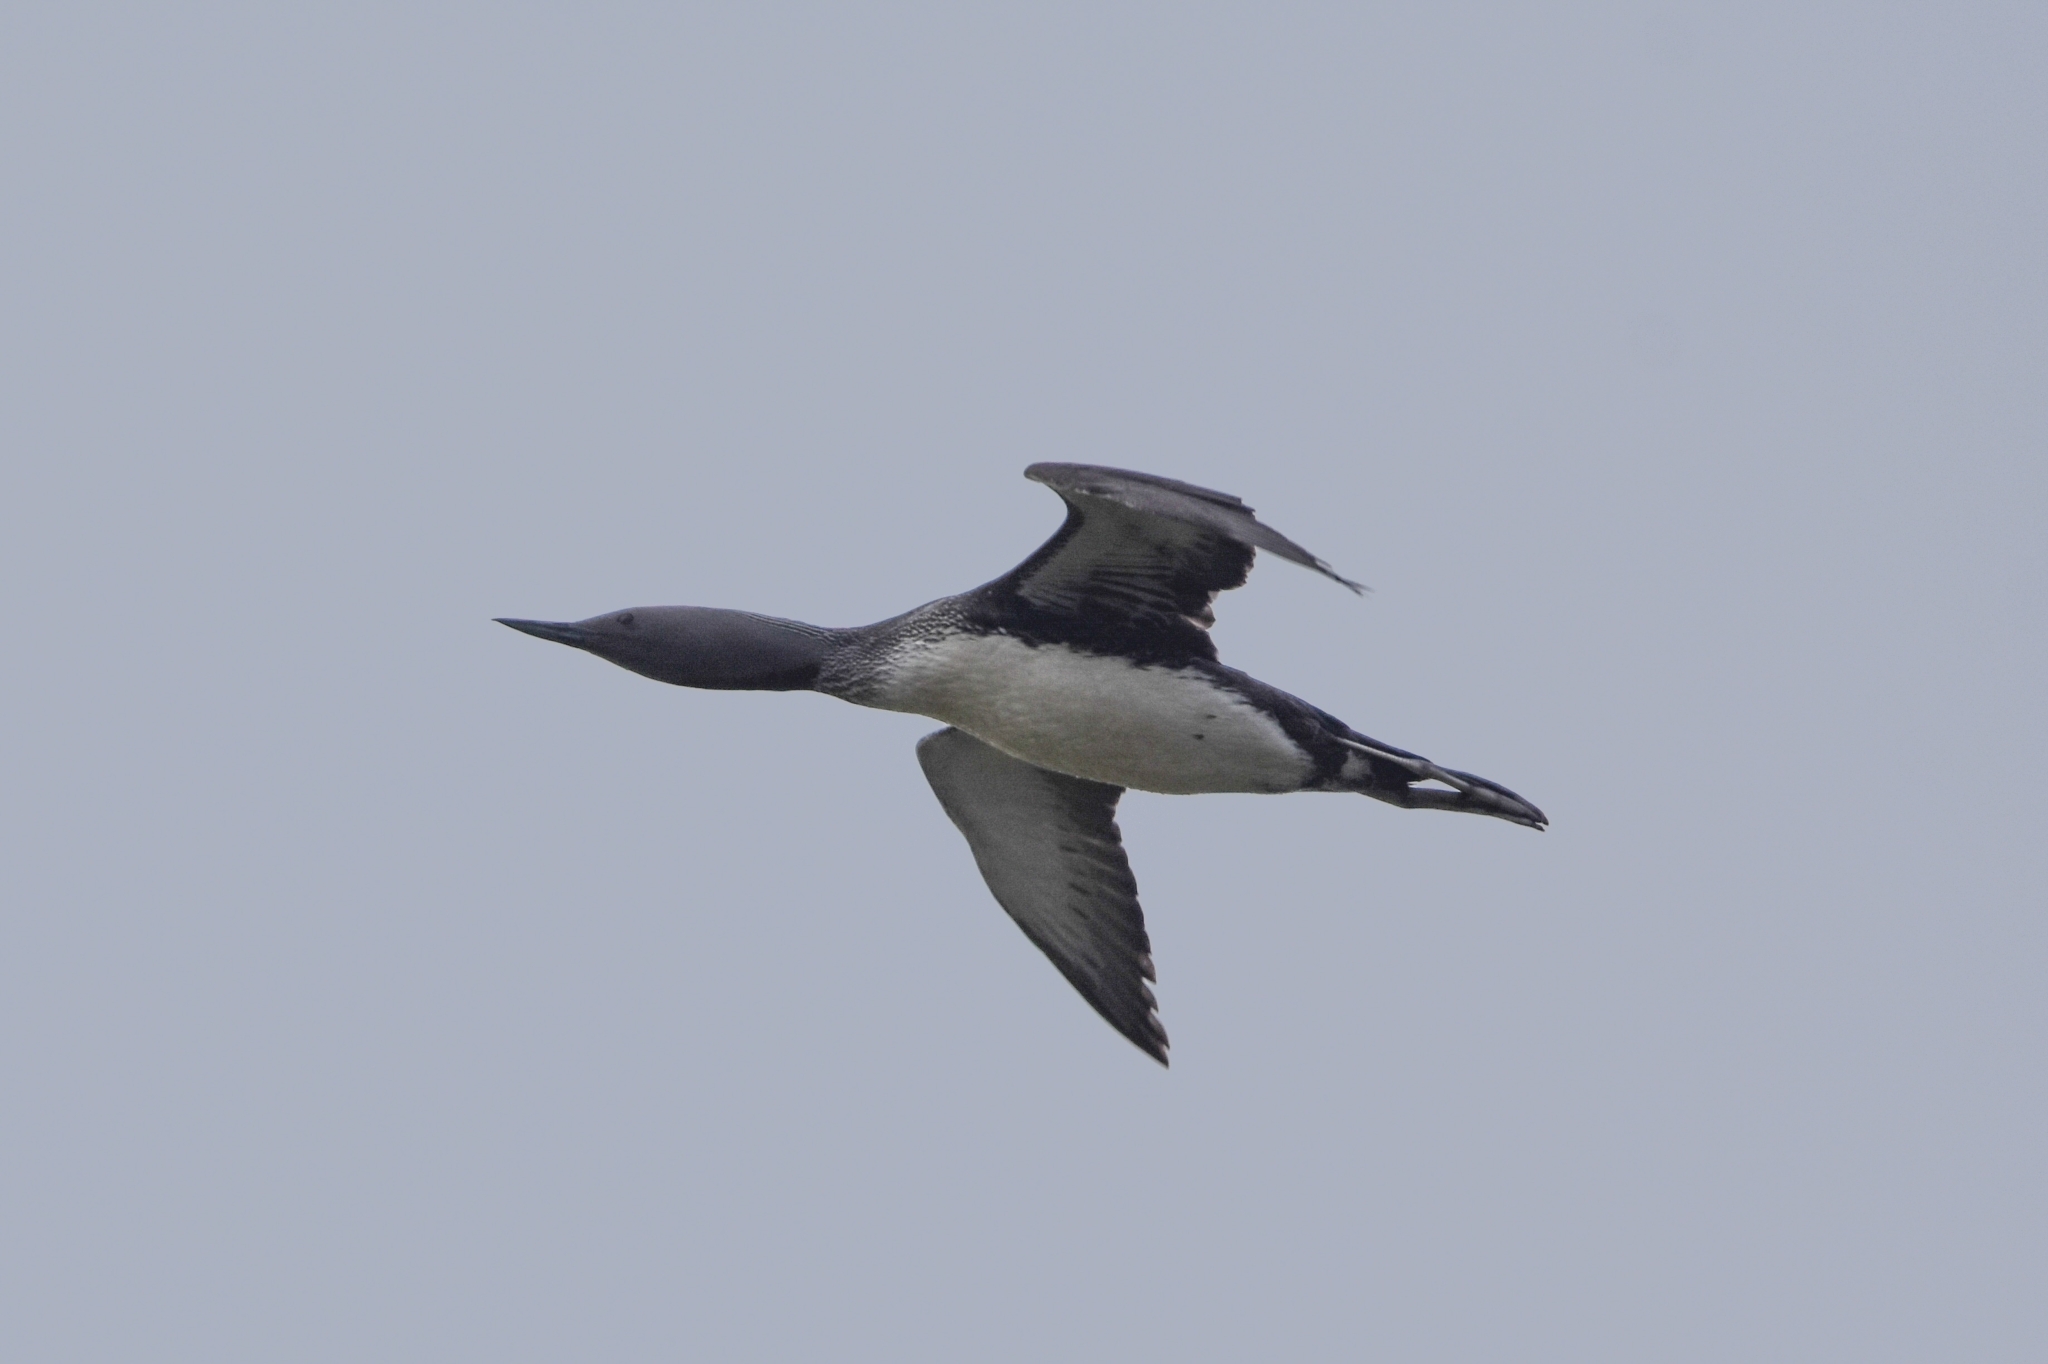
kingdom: Animalia
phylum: Chordata
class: Aves
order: Gaviiformes
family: Gaviidae
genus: Gavia
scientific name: Gavia stellata
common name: Red-throated loon
